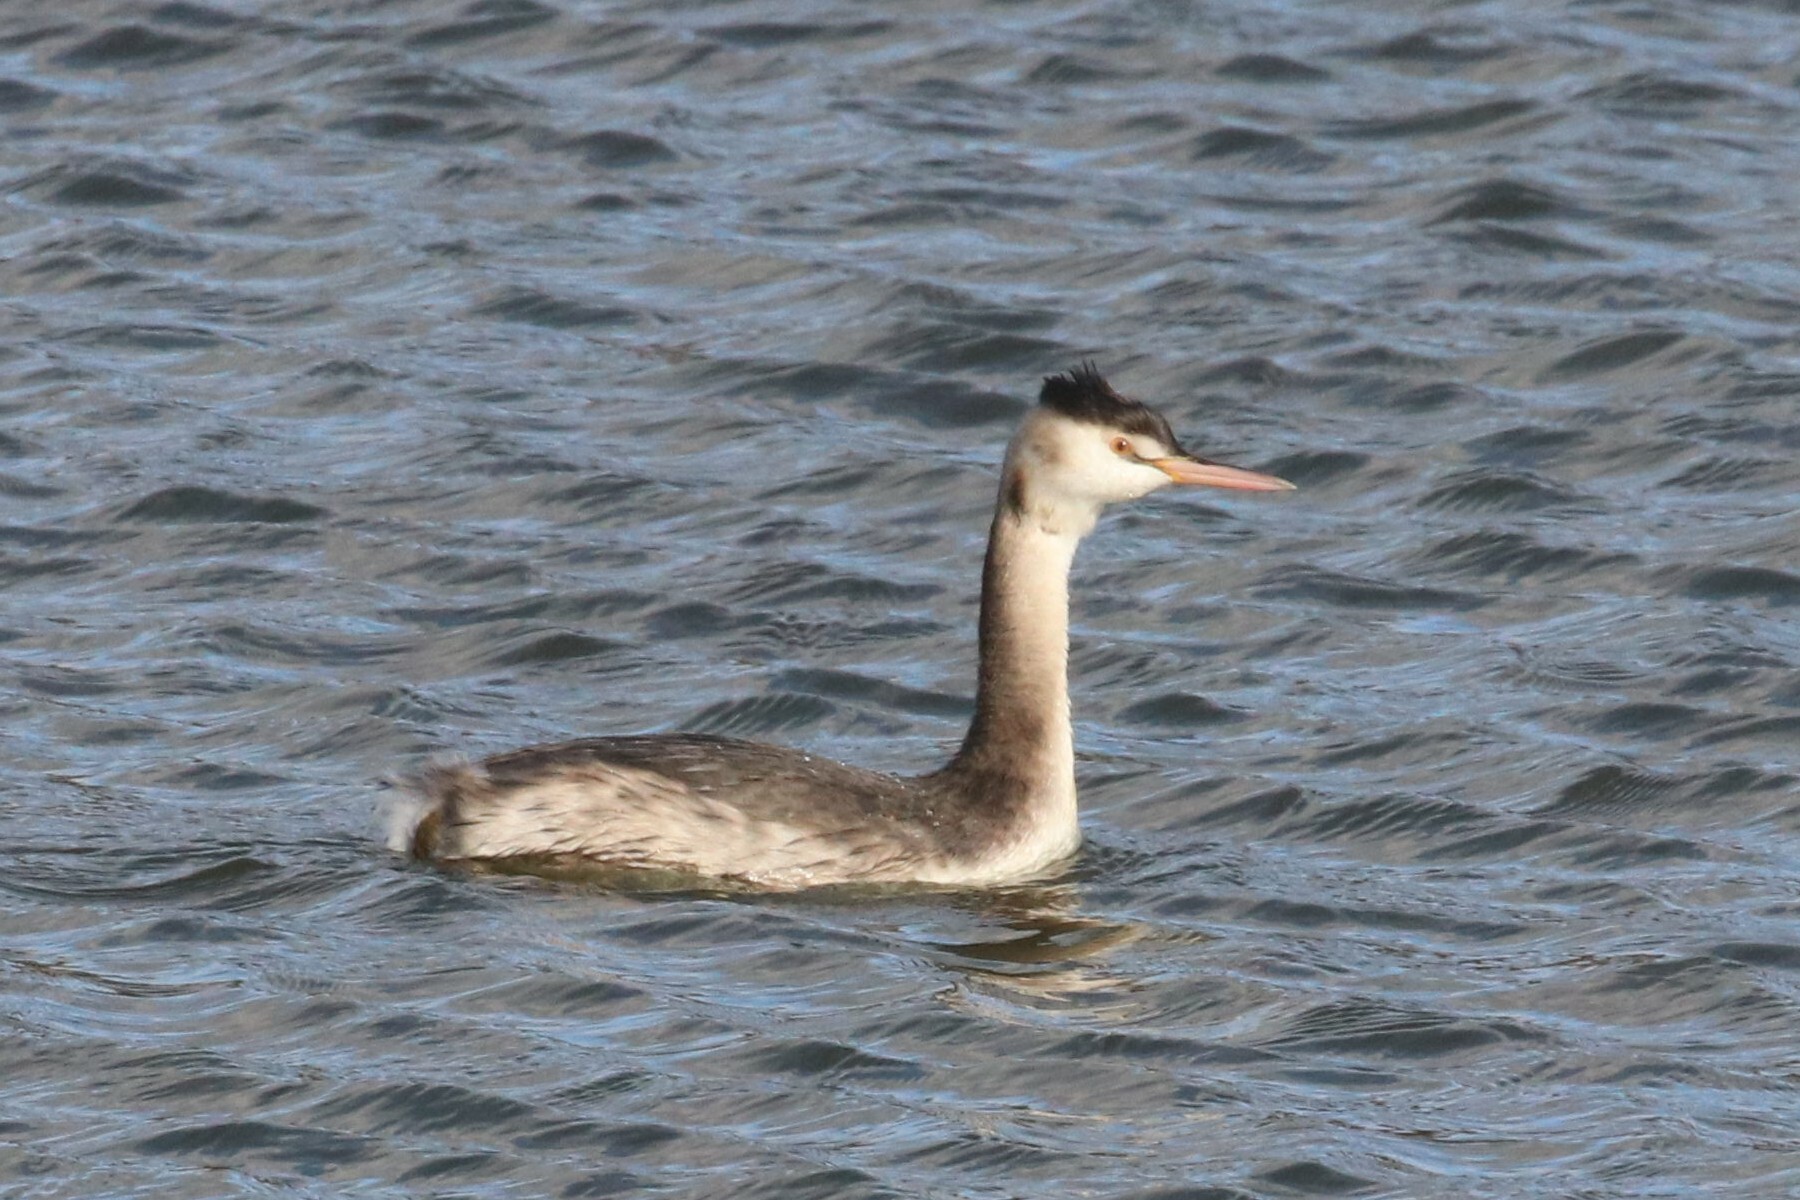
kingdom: Animalia
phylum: Chordata
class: Aves
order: Podicipediformes
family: Podicipedidae
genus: Podiceps
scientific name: Podiceps cristatus
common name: Great crested grebe
